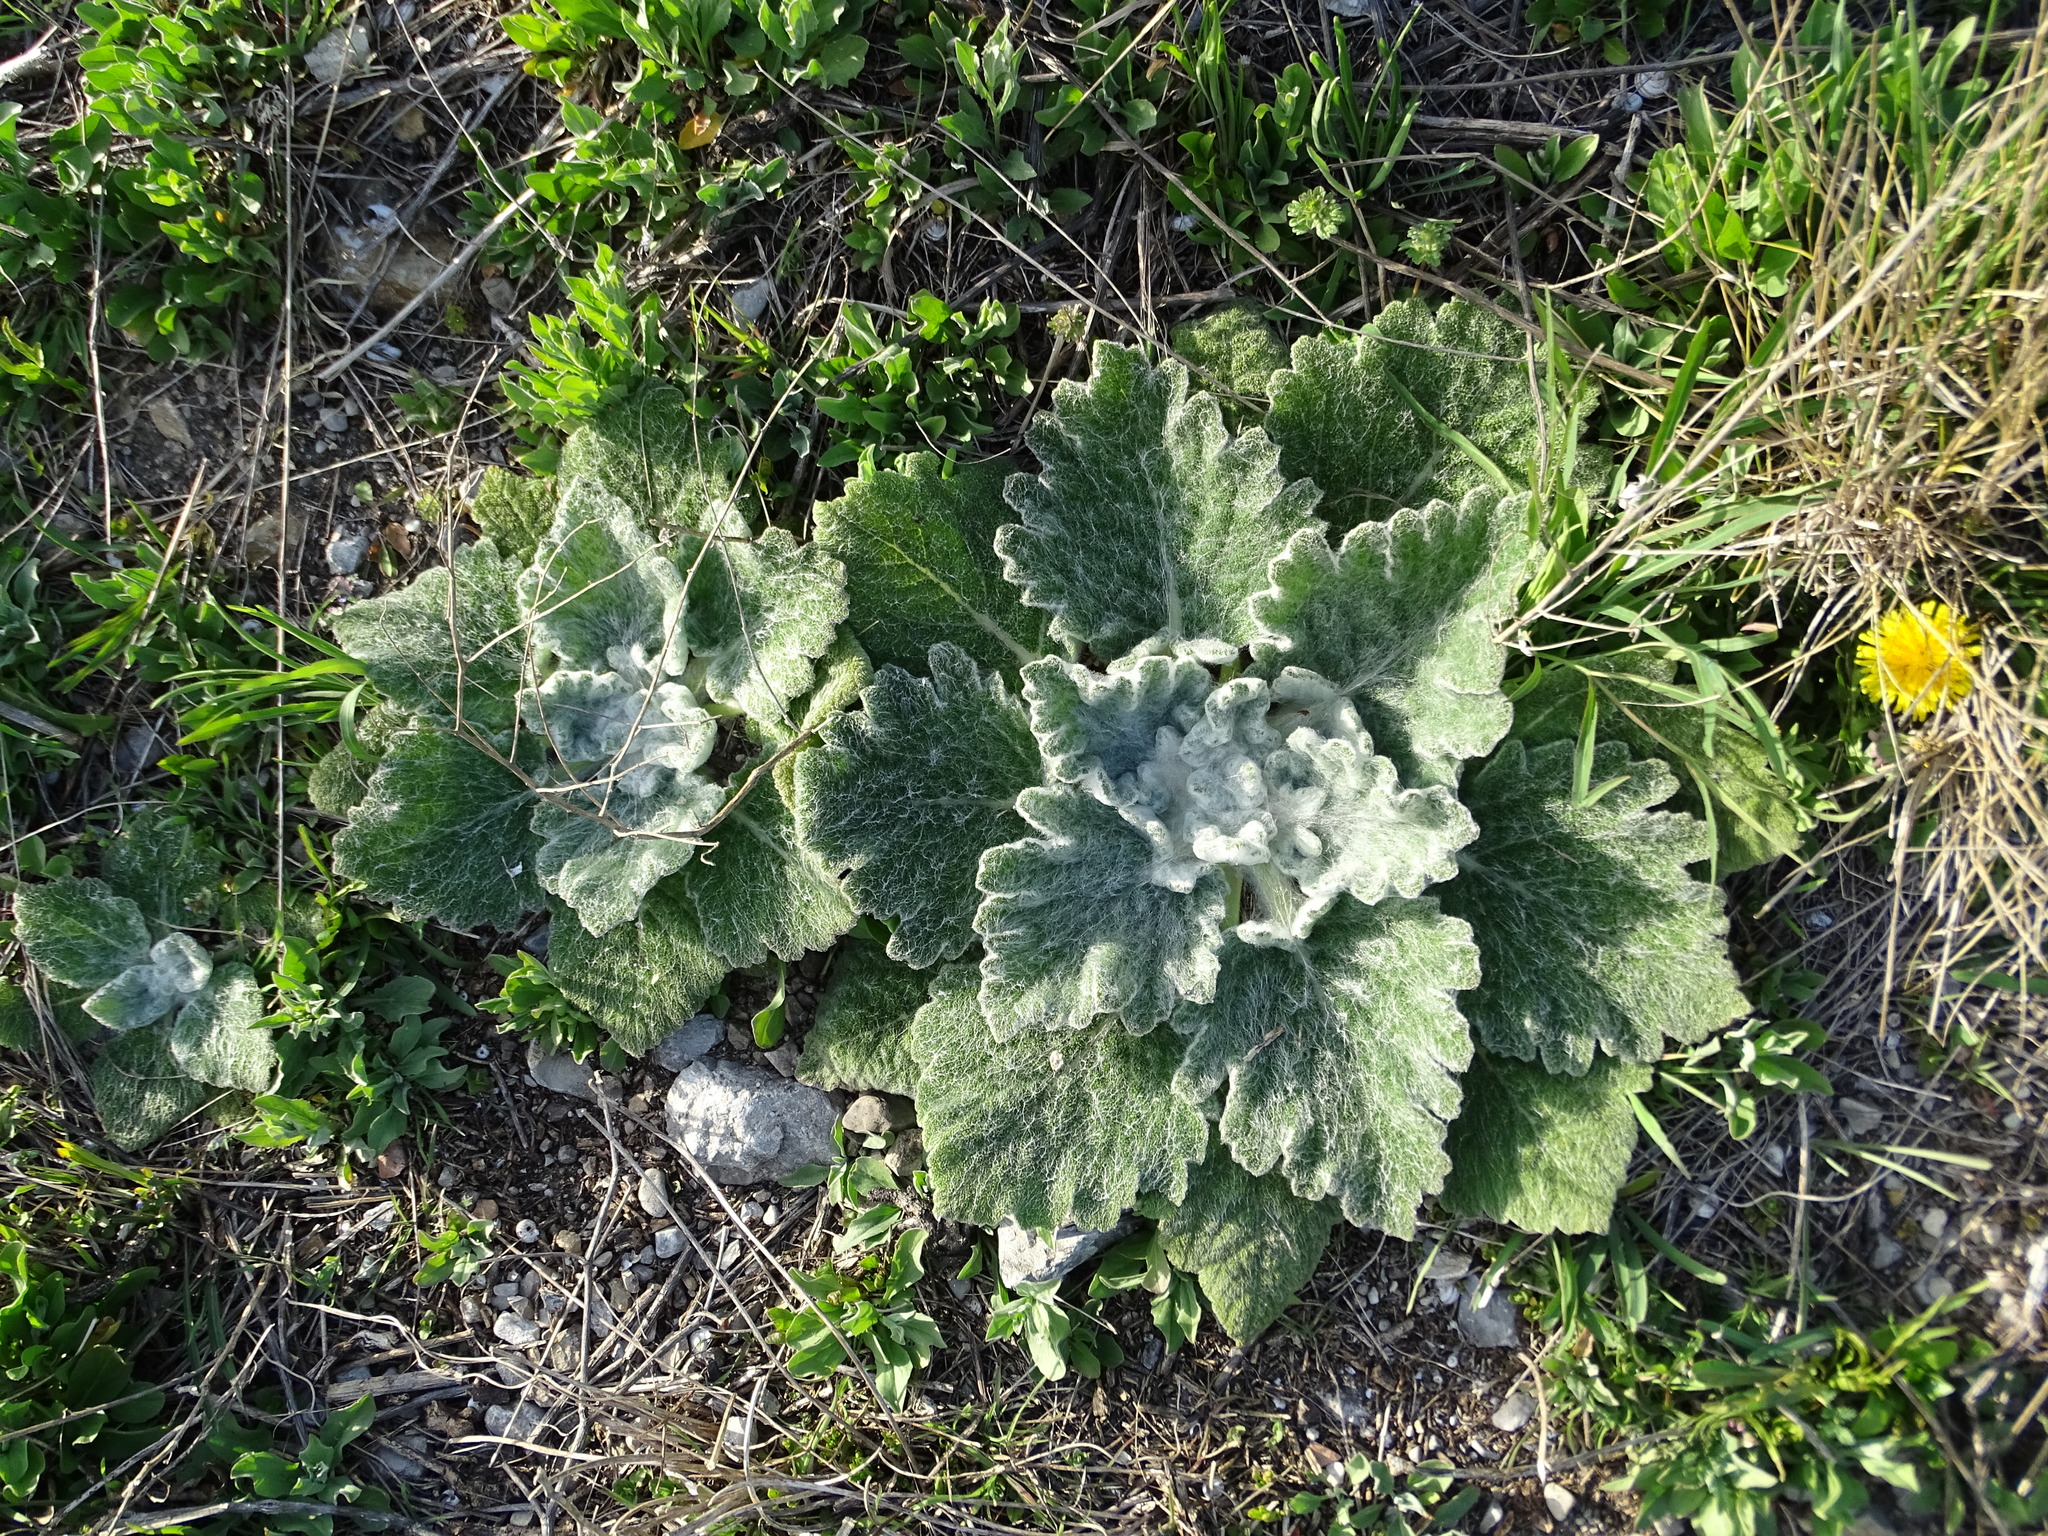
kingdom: Plantae
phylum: Tracheophyta
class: Magnoliopsida
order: Lamiales
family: Lamiaceae
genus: Salvia
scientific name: Salvia aethiopis
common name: Mediterranean sage
